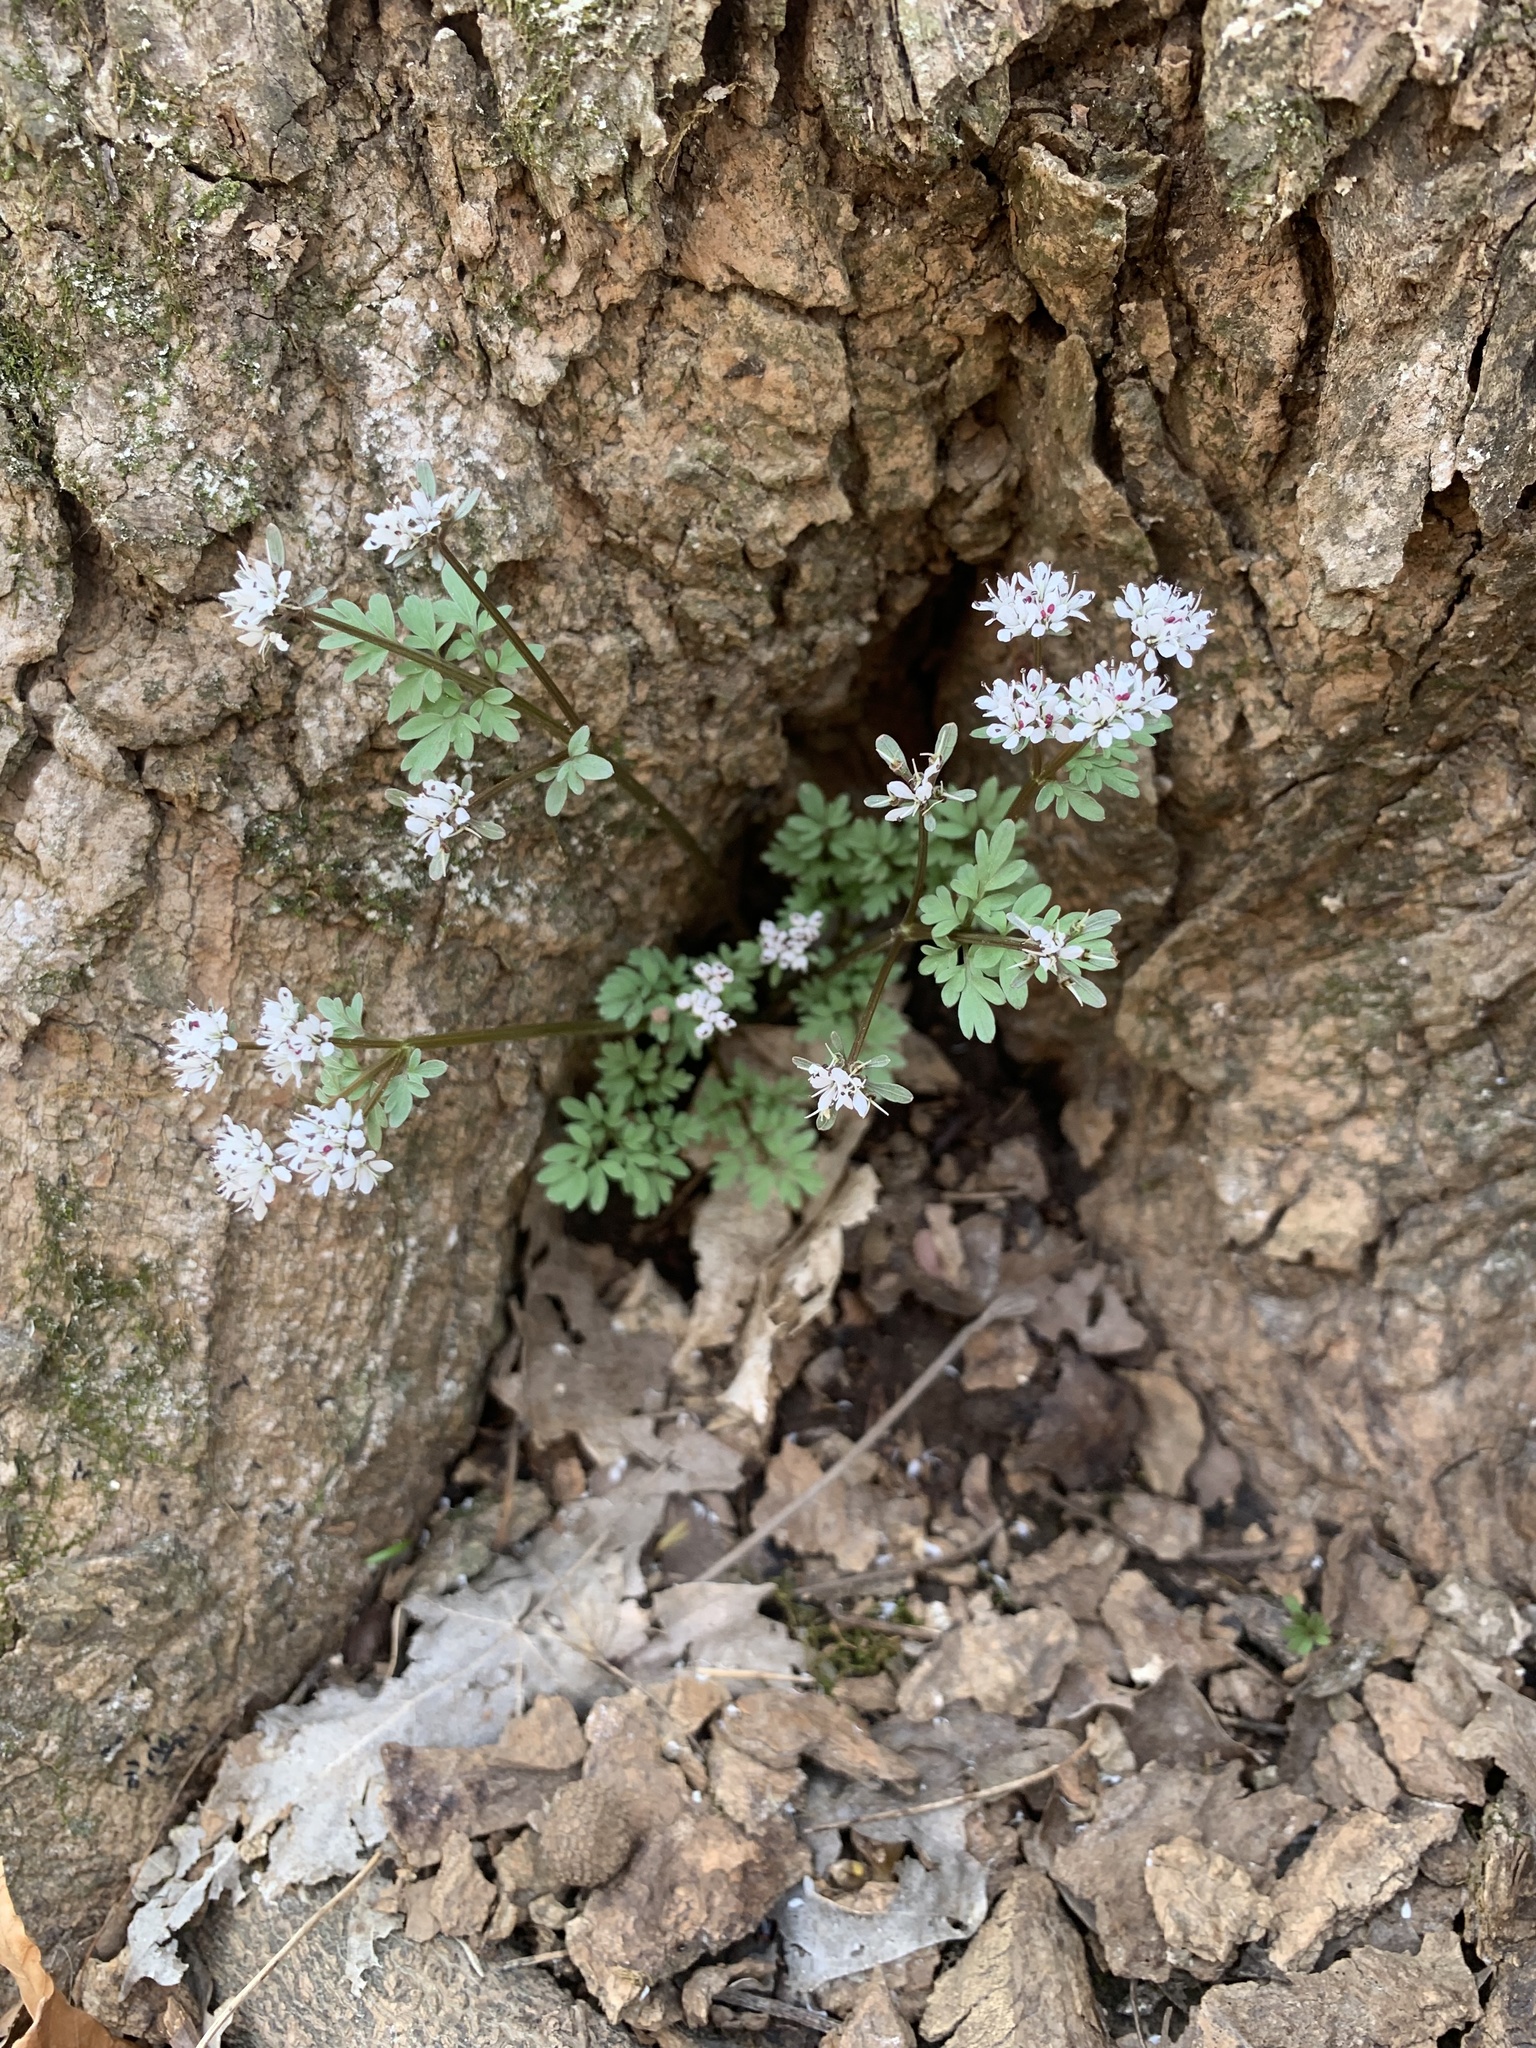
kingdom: Plantae
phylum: Tracheophyta
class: Magnoliopsida
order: Apiales
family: Apiaceae
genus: Erigenia
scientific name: Erigenia bulbosa
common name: Pepper-and-salt
